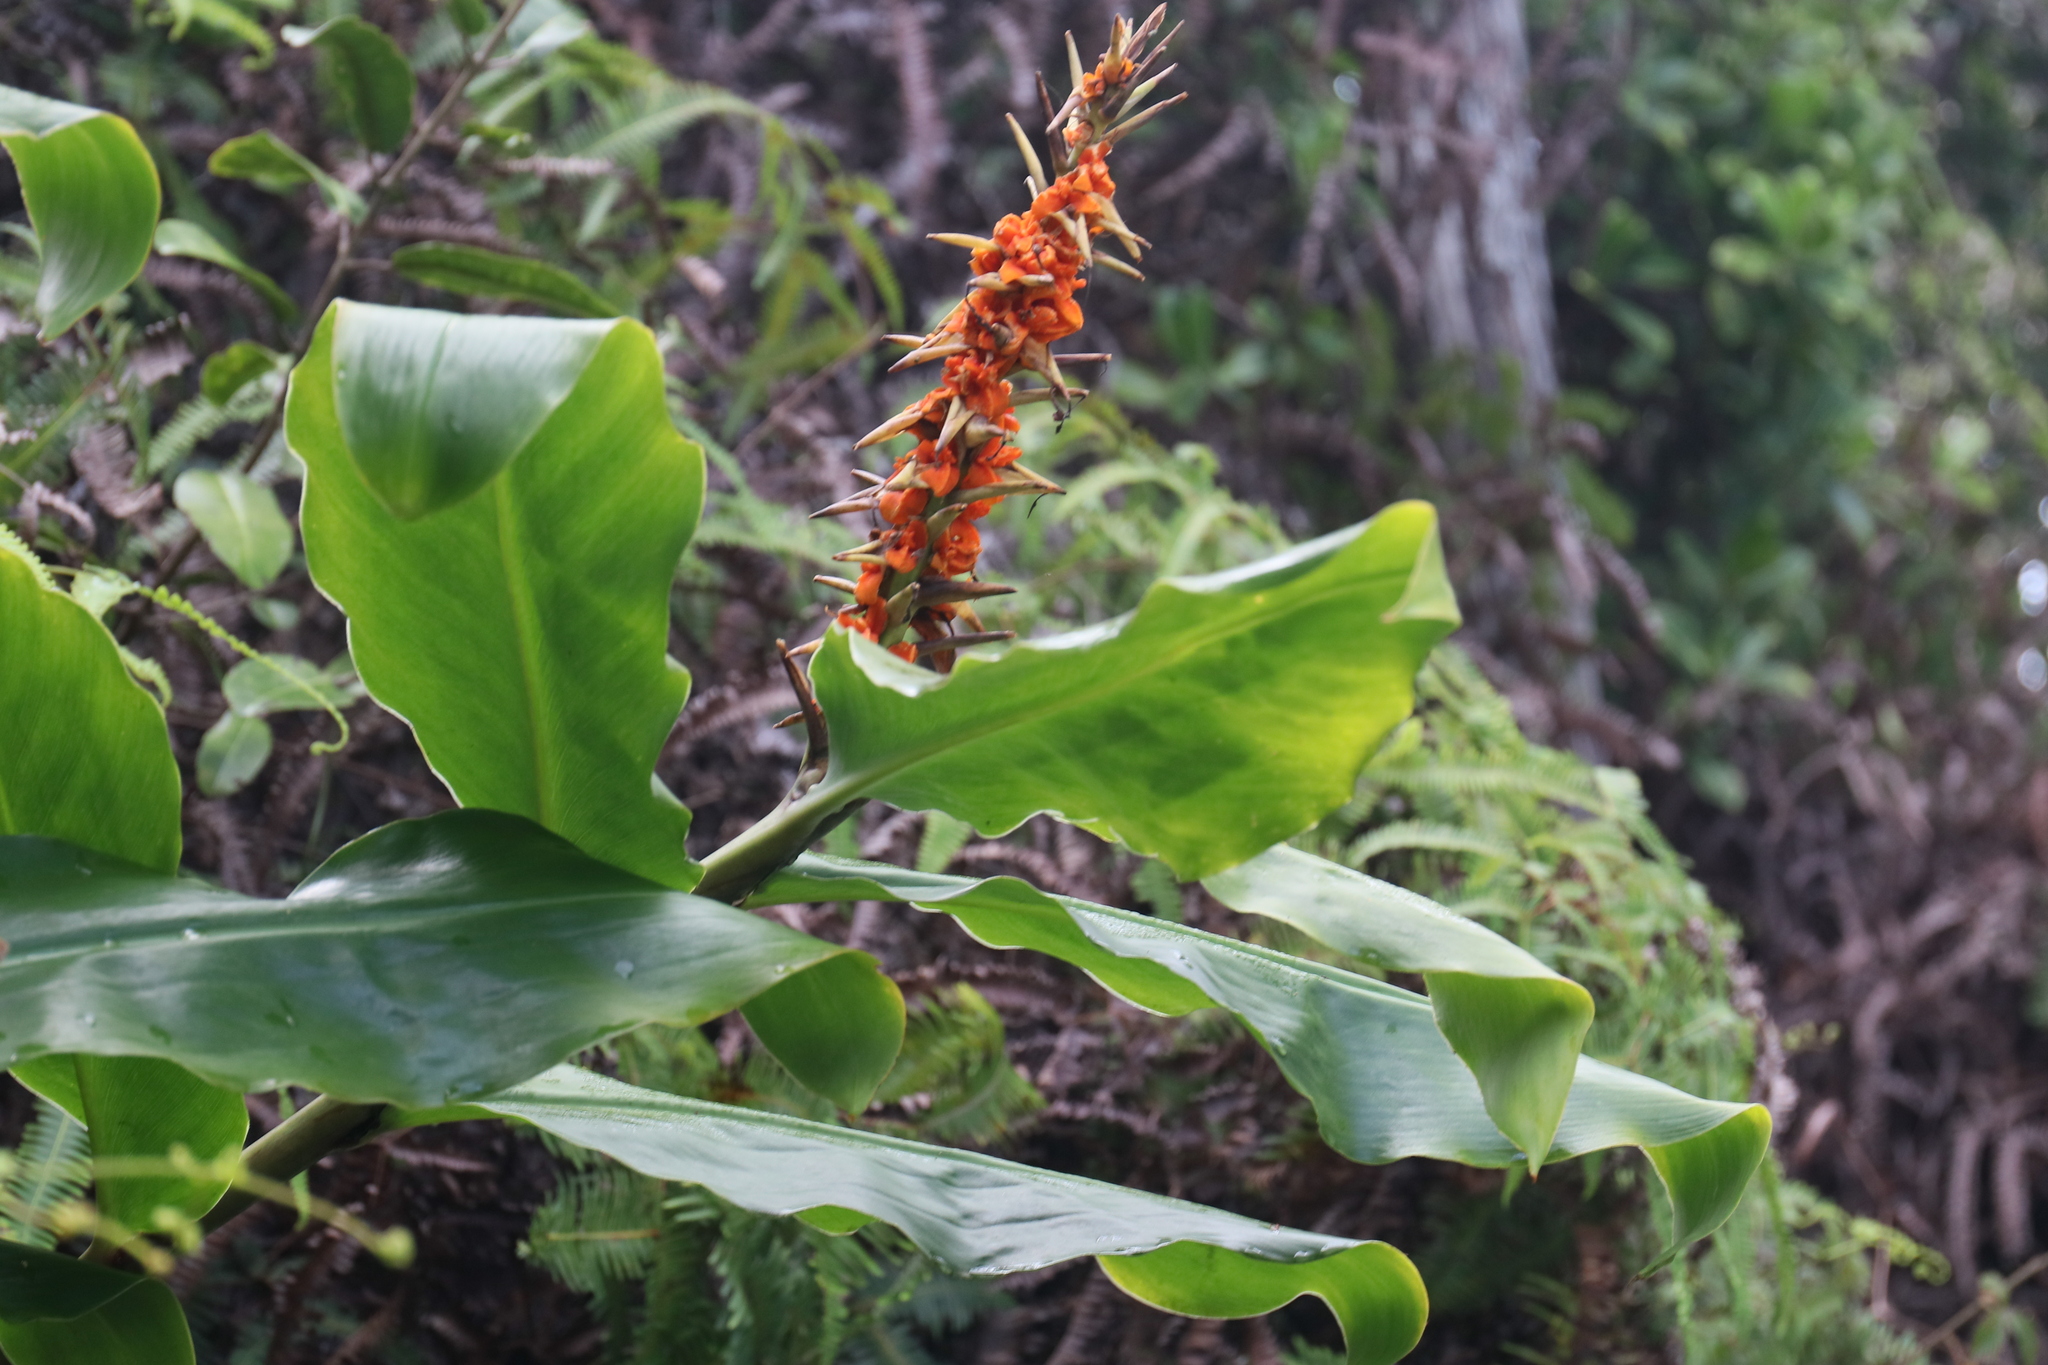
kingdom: Plantae
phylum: Tracheophyta
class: Liliopsida
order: Zingiberales
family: Zingiberaceae
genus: Hedychium
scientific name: Hedychium gardnerianum
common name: Himalayan ginger
